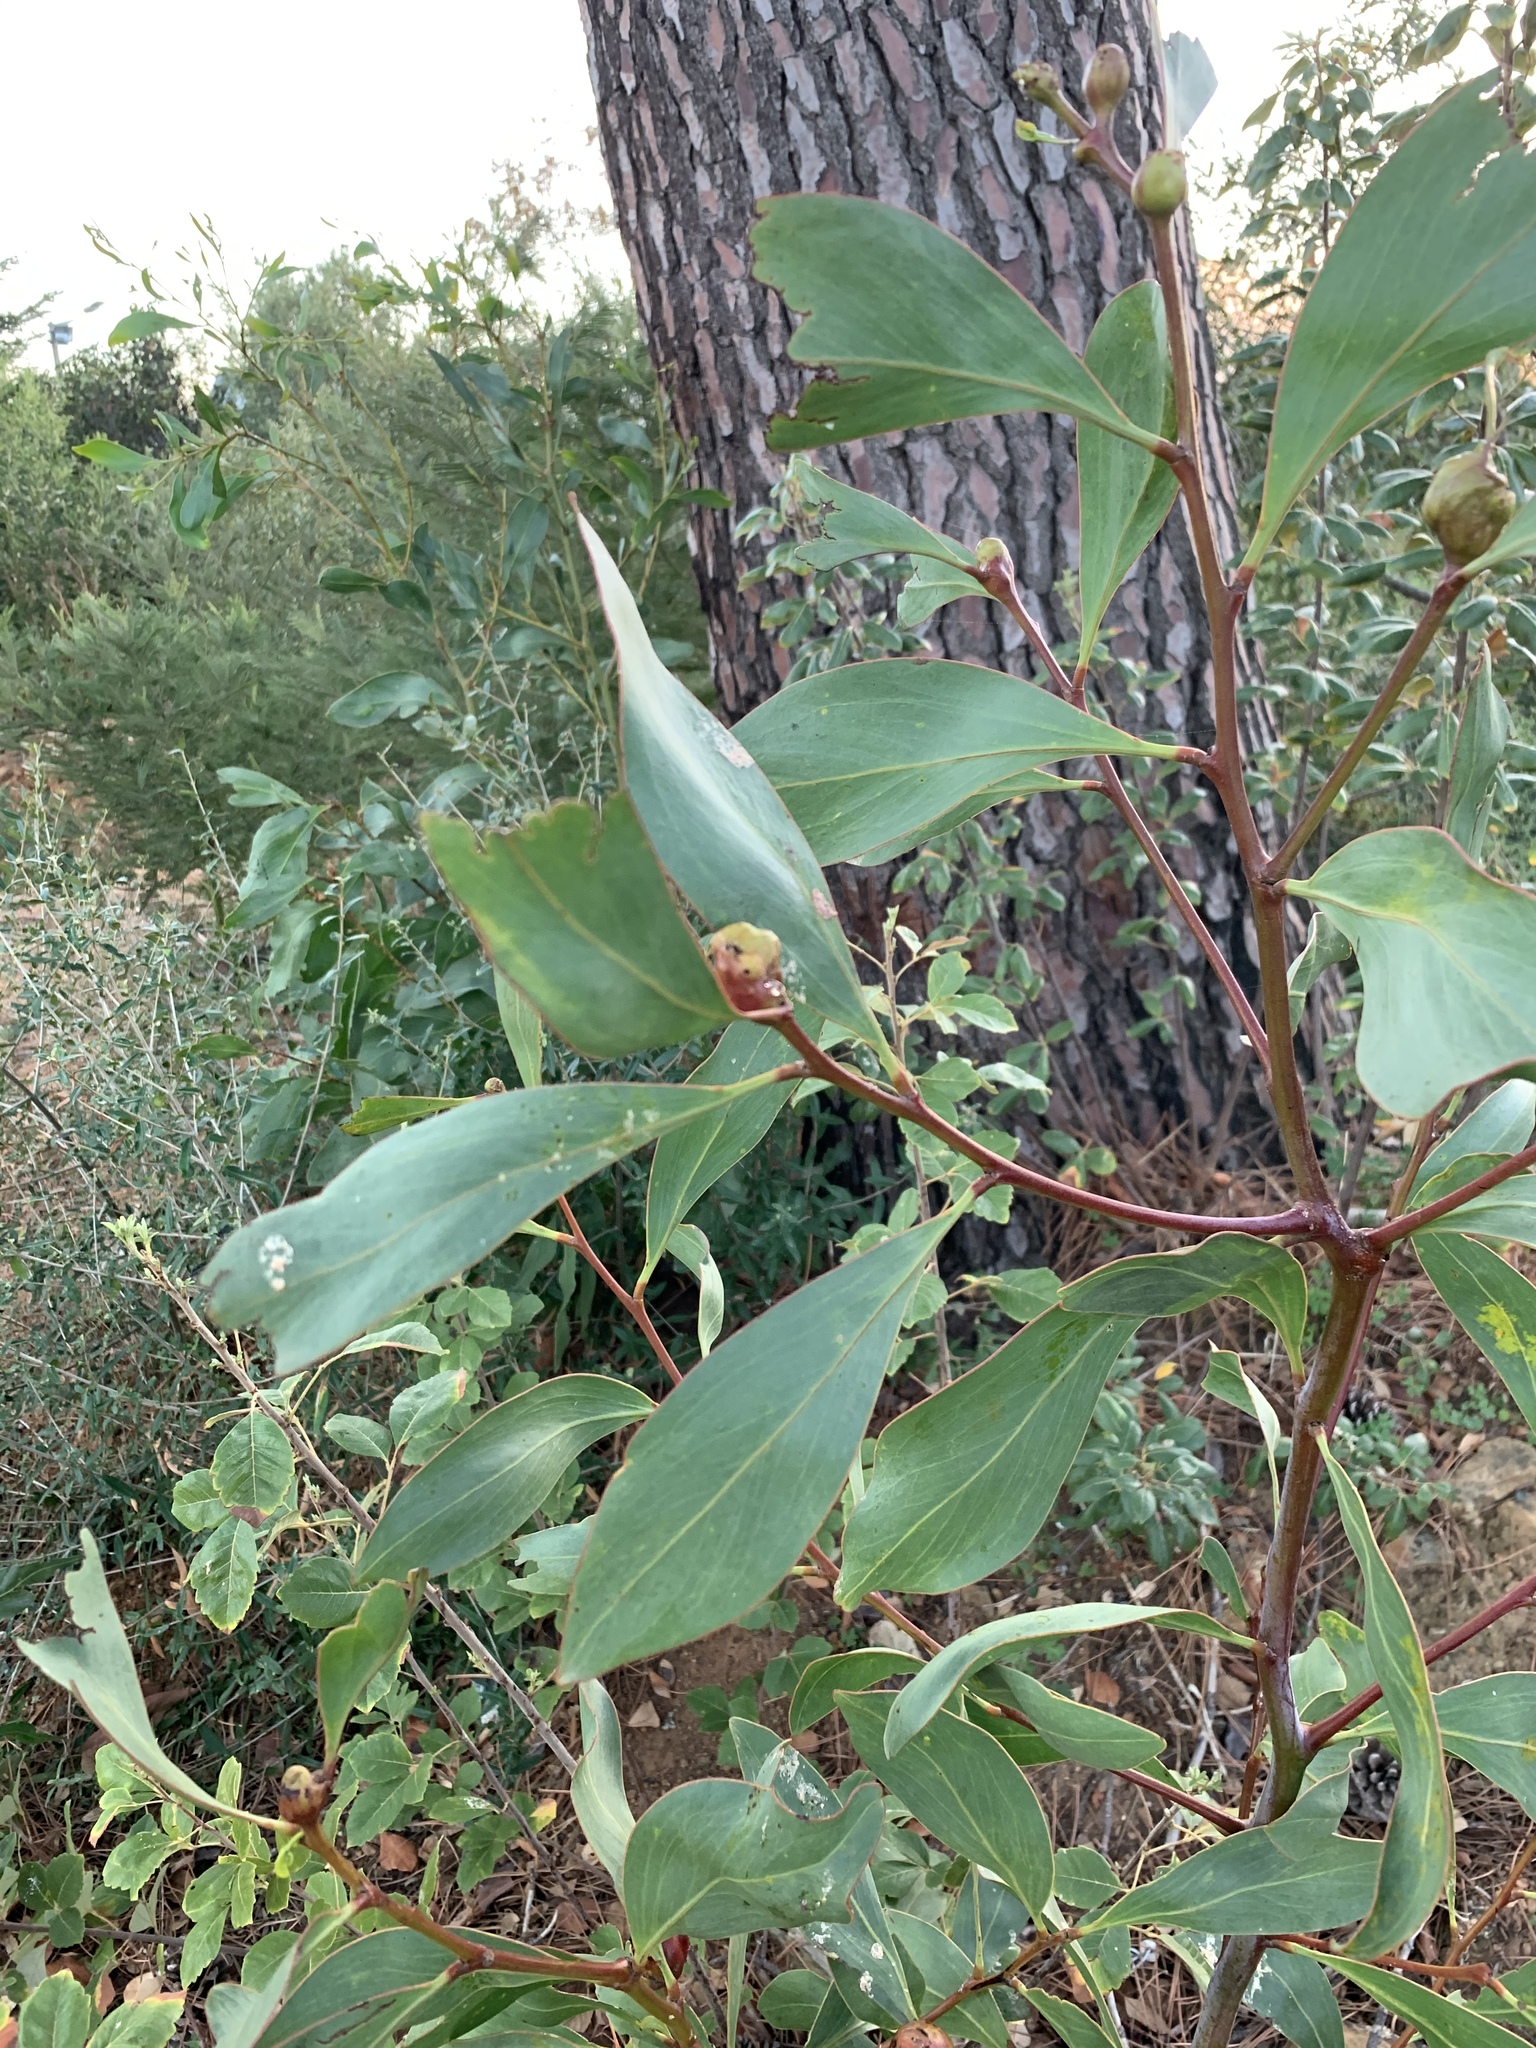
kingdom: Plantae
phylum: Tracheophyta
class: Magnoliopsida
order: Fabales
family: Fabaceae
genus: Acacia
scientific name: Acacia pycnantha
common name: Golden wattle
